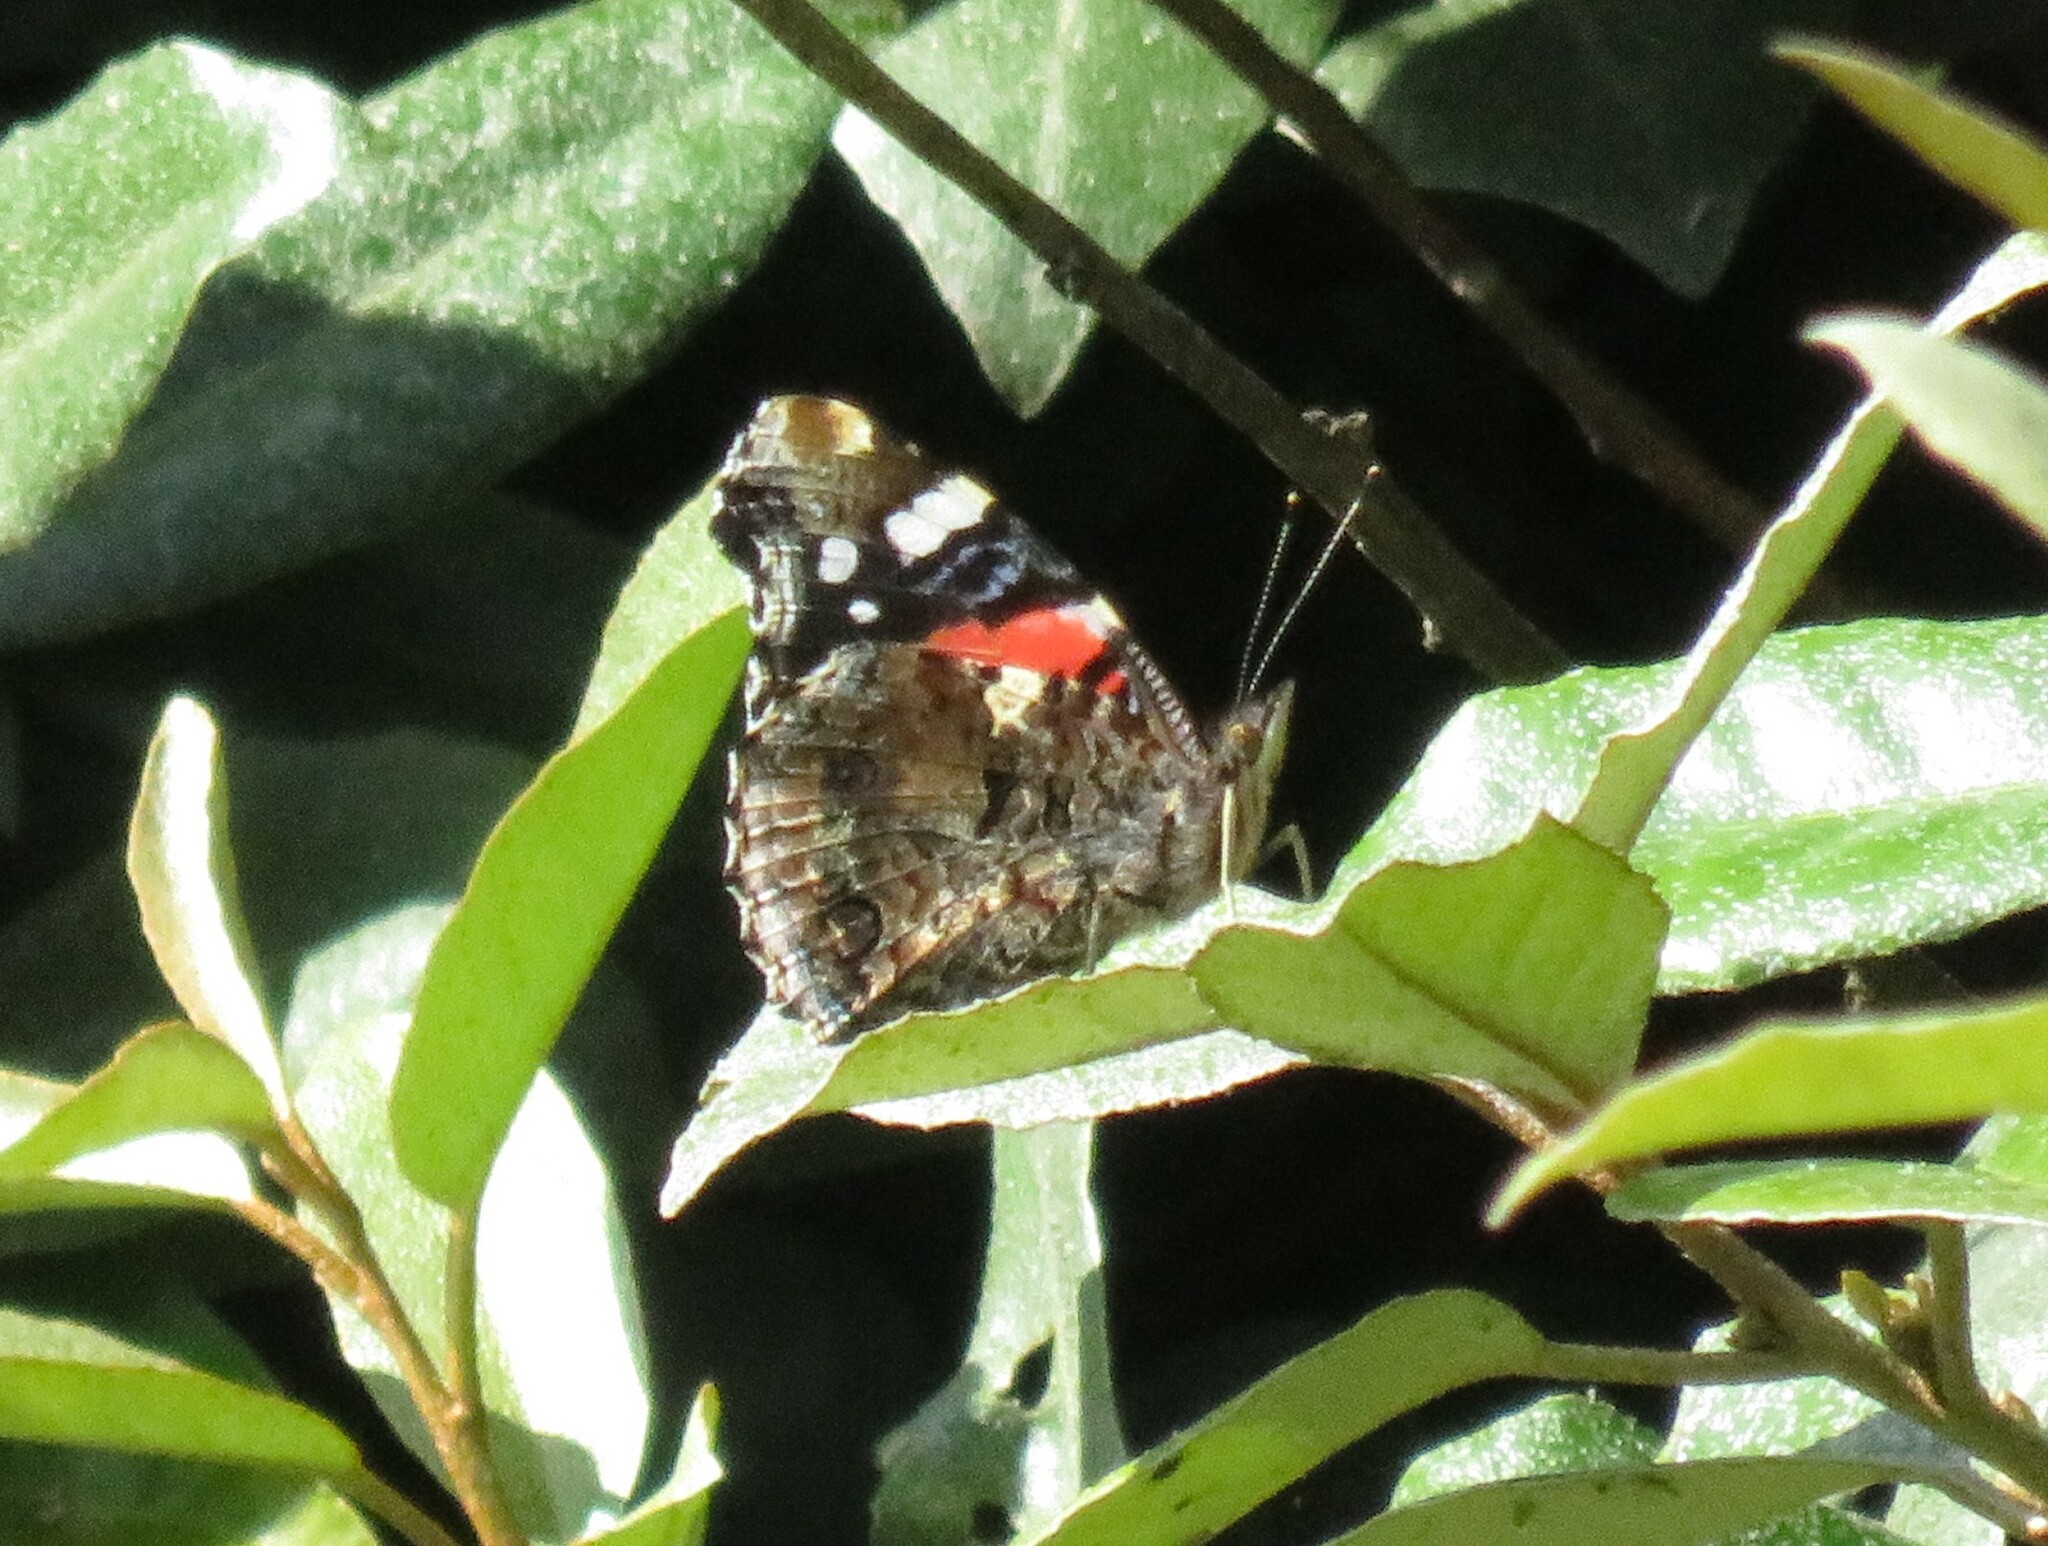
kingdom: Animalia
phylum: Arthropoda
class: Insecta
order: Lepidoptera
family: Nymphalidae
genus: Vanessa
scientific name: Vanessa atalanta
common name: Red admiral
